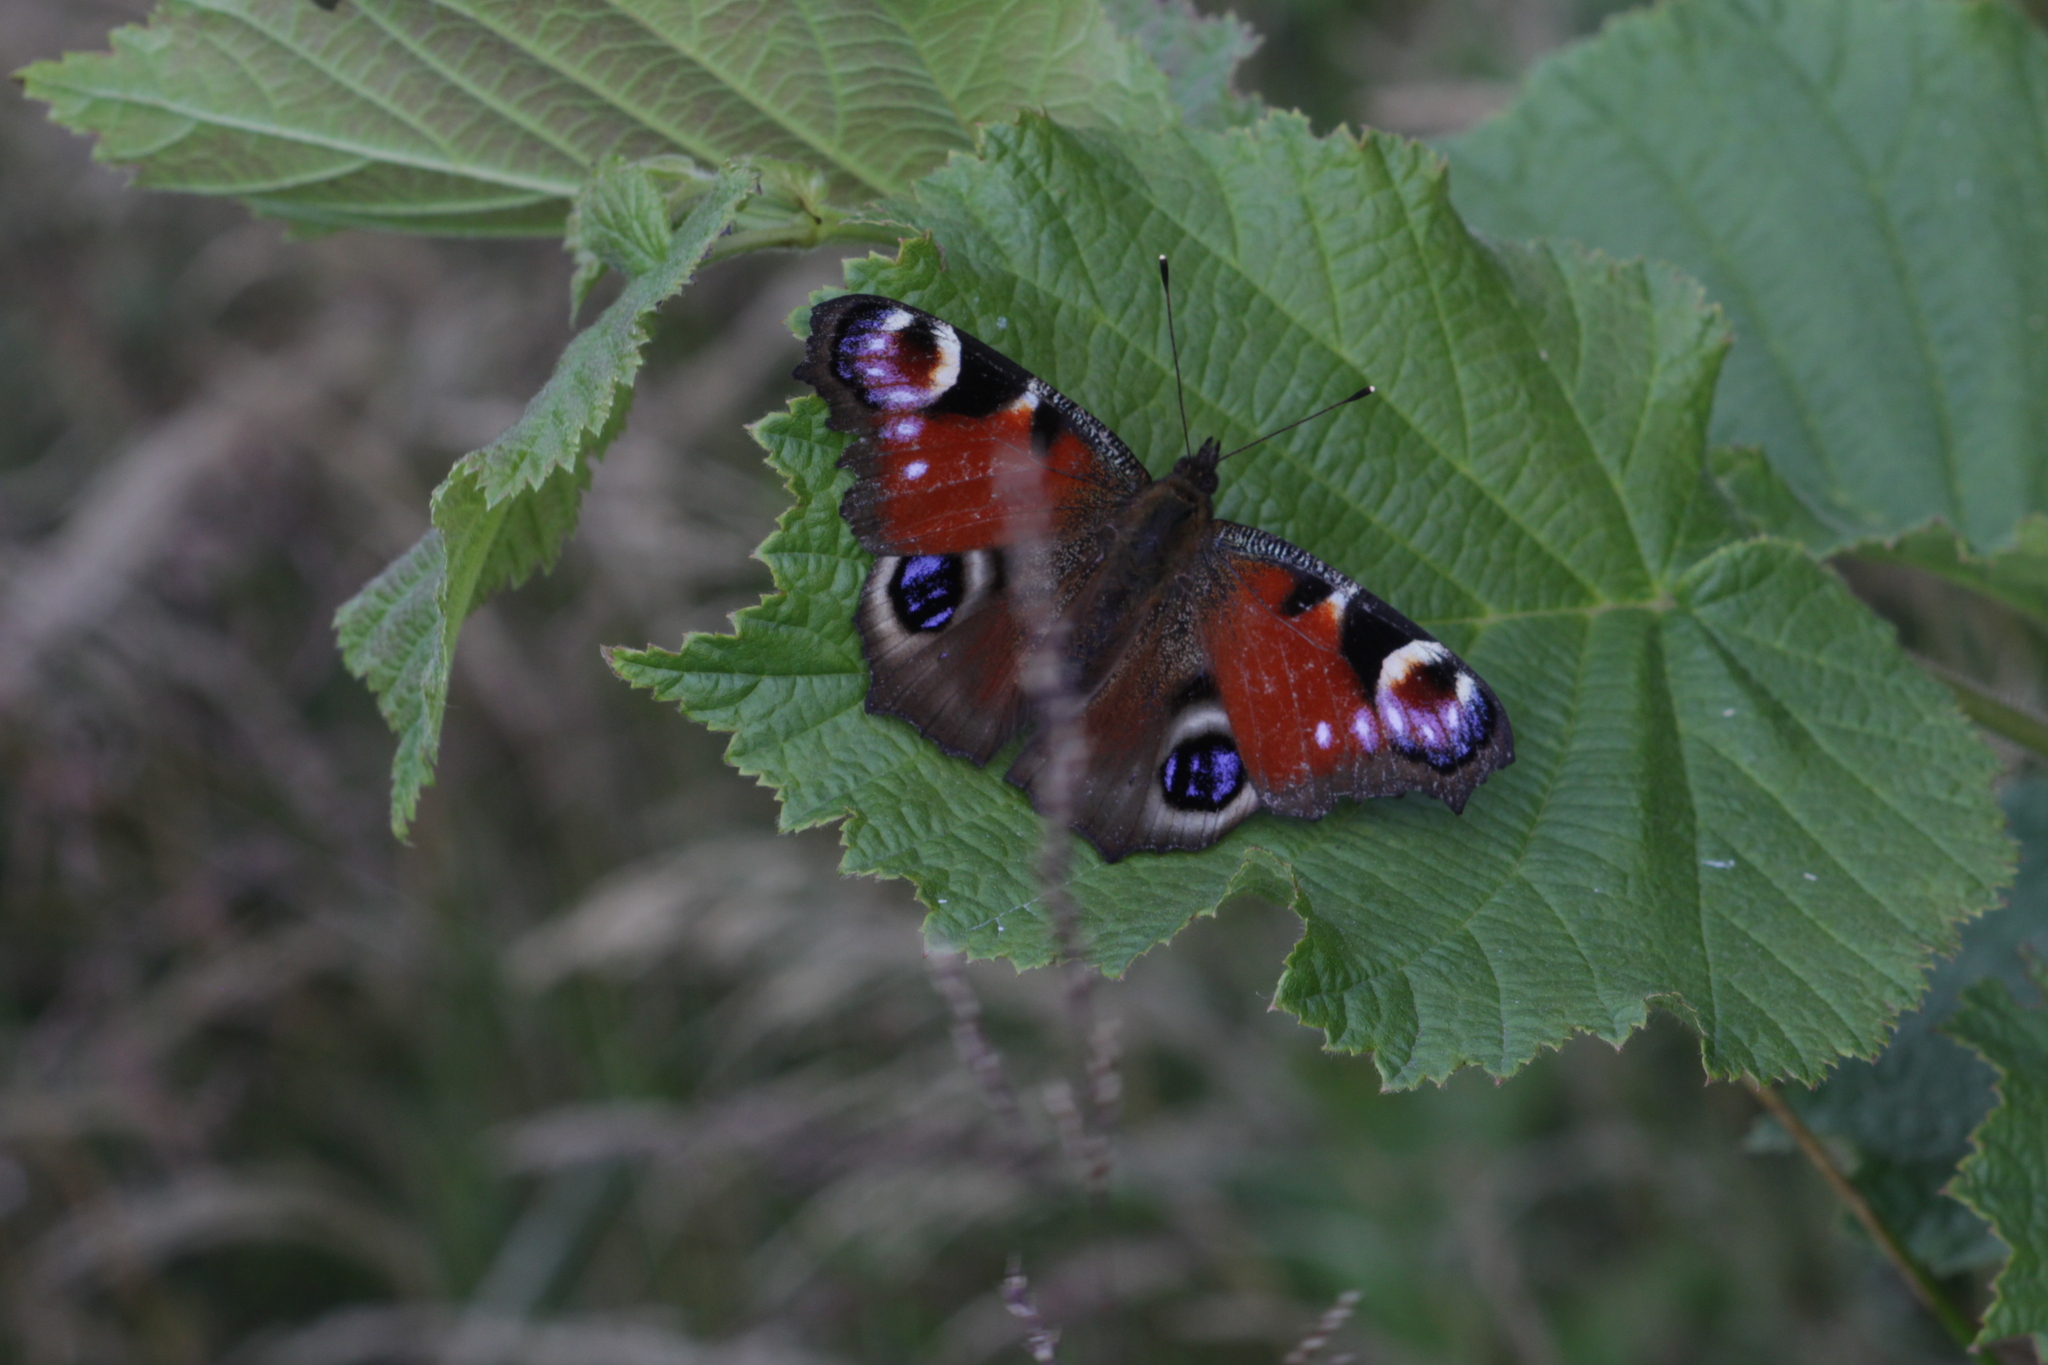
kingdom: Animalia
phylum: Arthropoda
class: Insecta
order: Lepidoptera
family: Nymphalidae
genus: Aglais
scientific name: Aglais io
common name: Peacock
